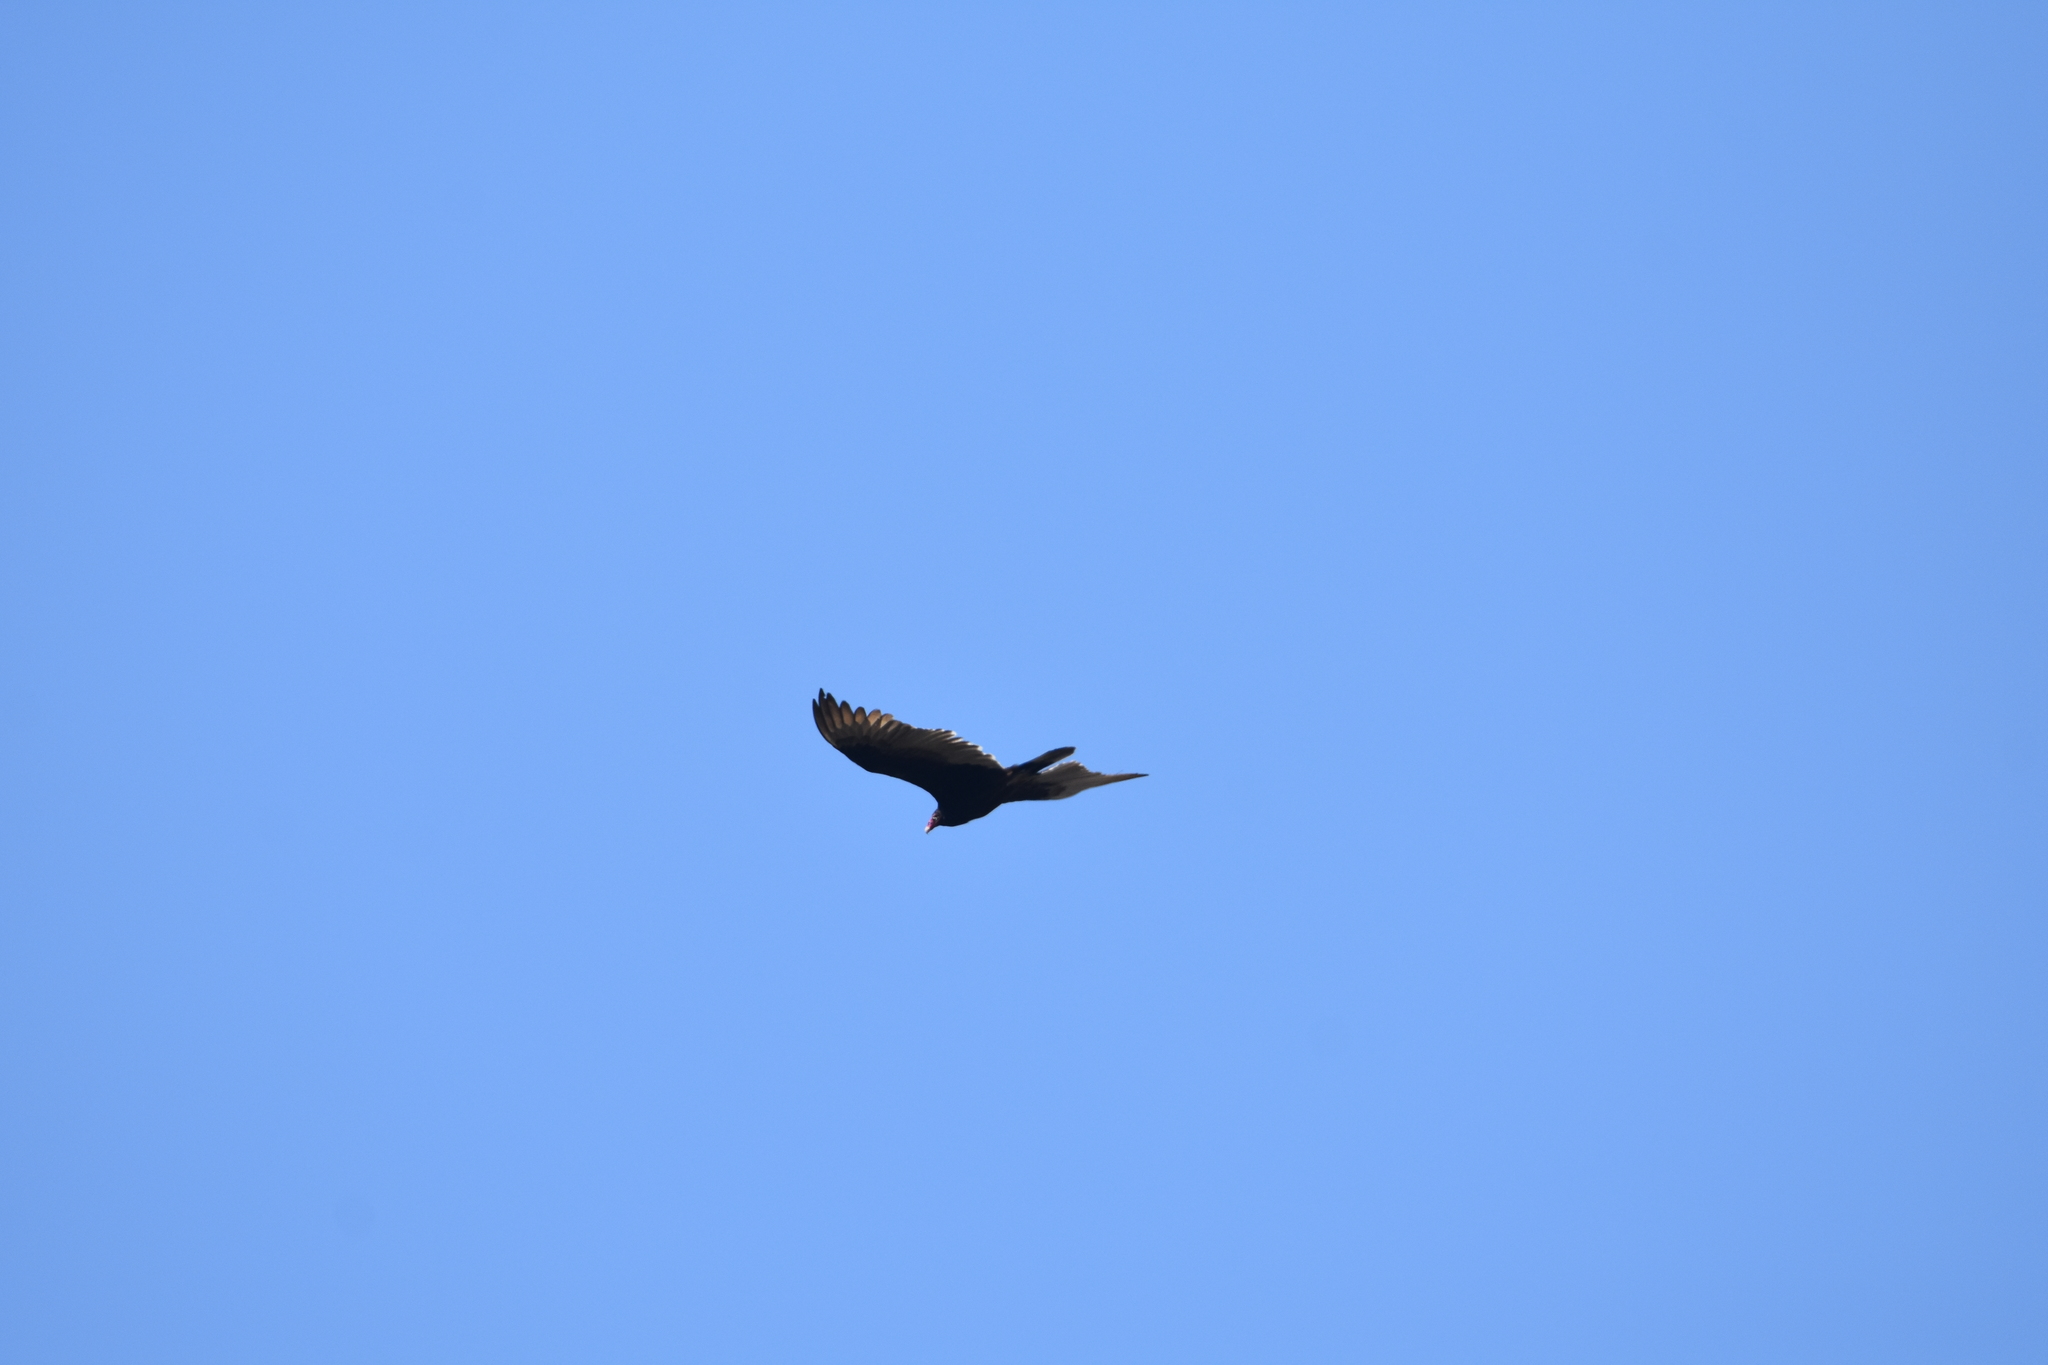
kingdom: Animalia
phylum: Chordata
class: Aves
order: Accipitriformes
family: Cathartidae
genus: Cathartes
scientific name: Cathartes aura
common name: Turkey vulture
